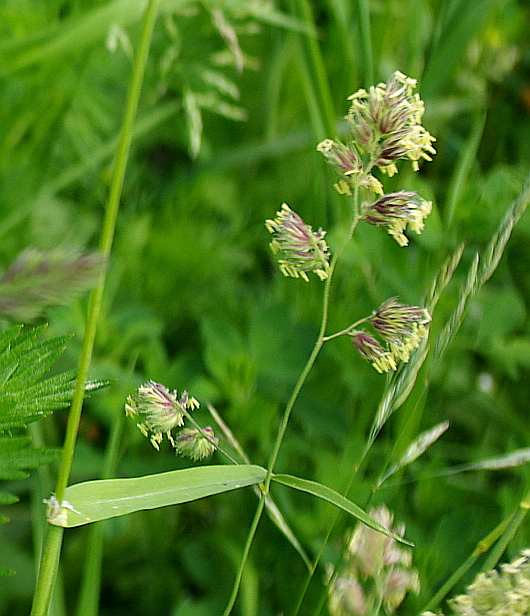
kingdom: Plantae
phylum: Tracheophyta
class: Liliopsida
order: Poales
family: Poaceae
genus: Dactylis
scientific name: Dactylis glomerata
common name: Orchardgrass
